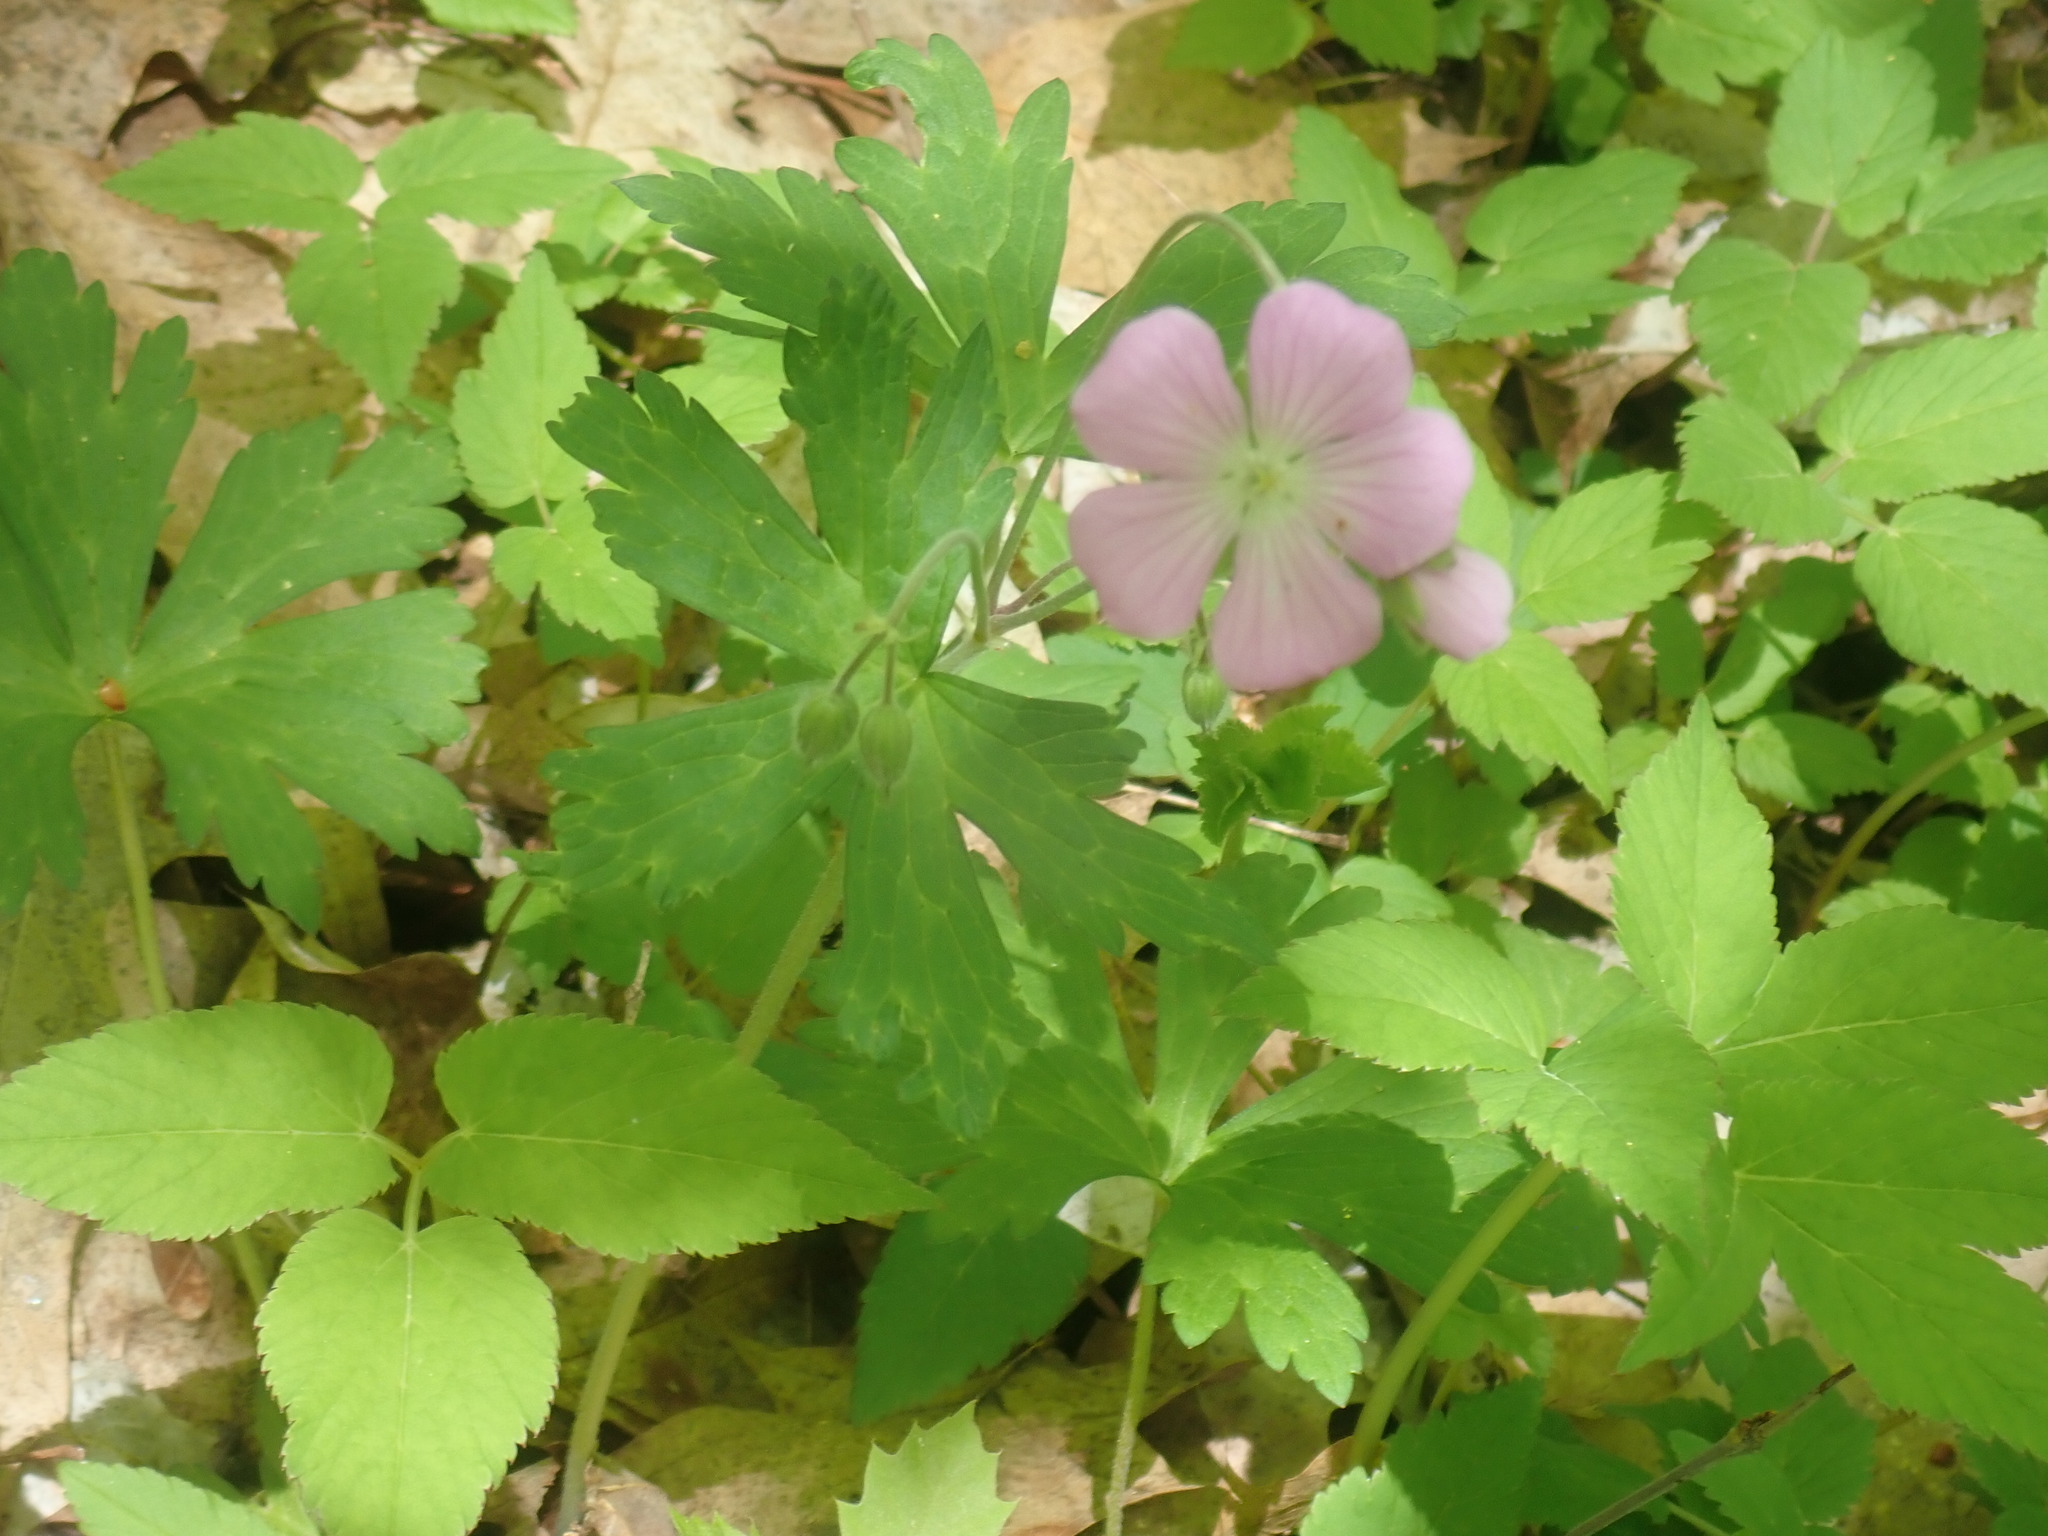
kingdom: Plantae
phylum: Tracheophyta
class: Magnoliopsida
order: Geraniales
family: Geraniaceae
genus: Geranium
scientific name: Geranium maculatum
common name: Spotted geranium
